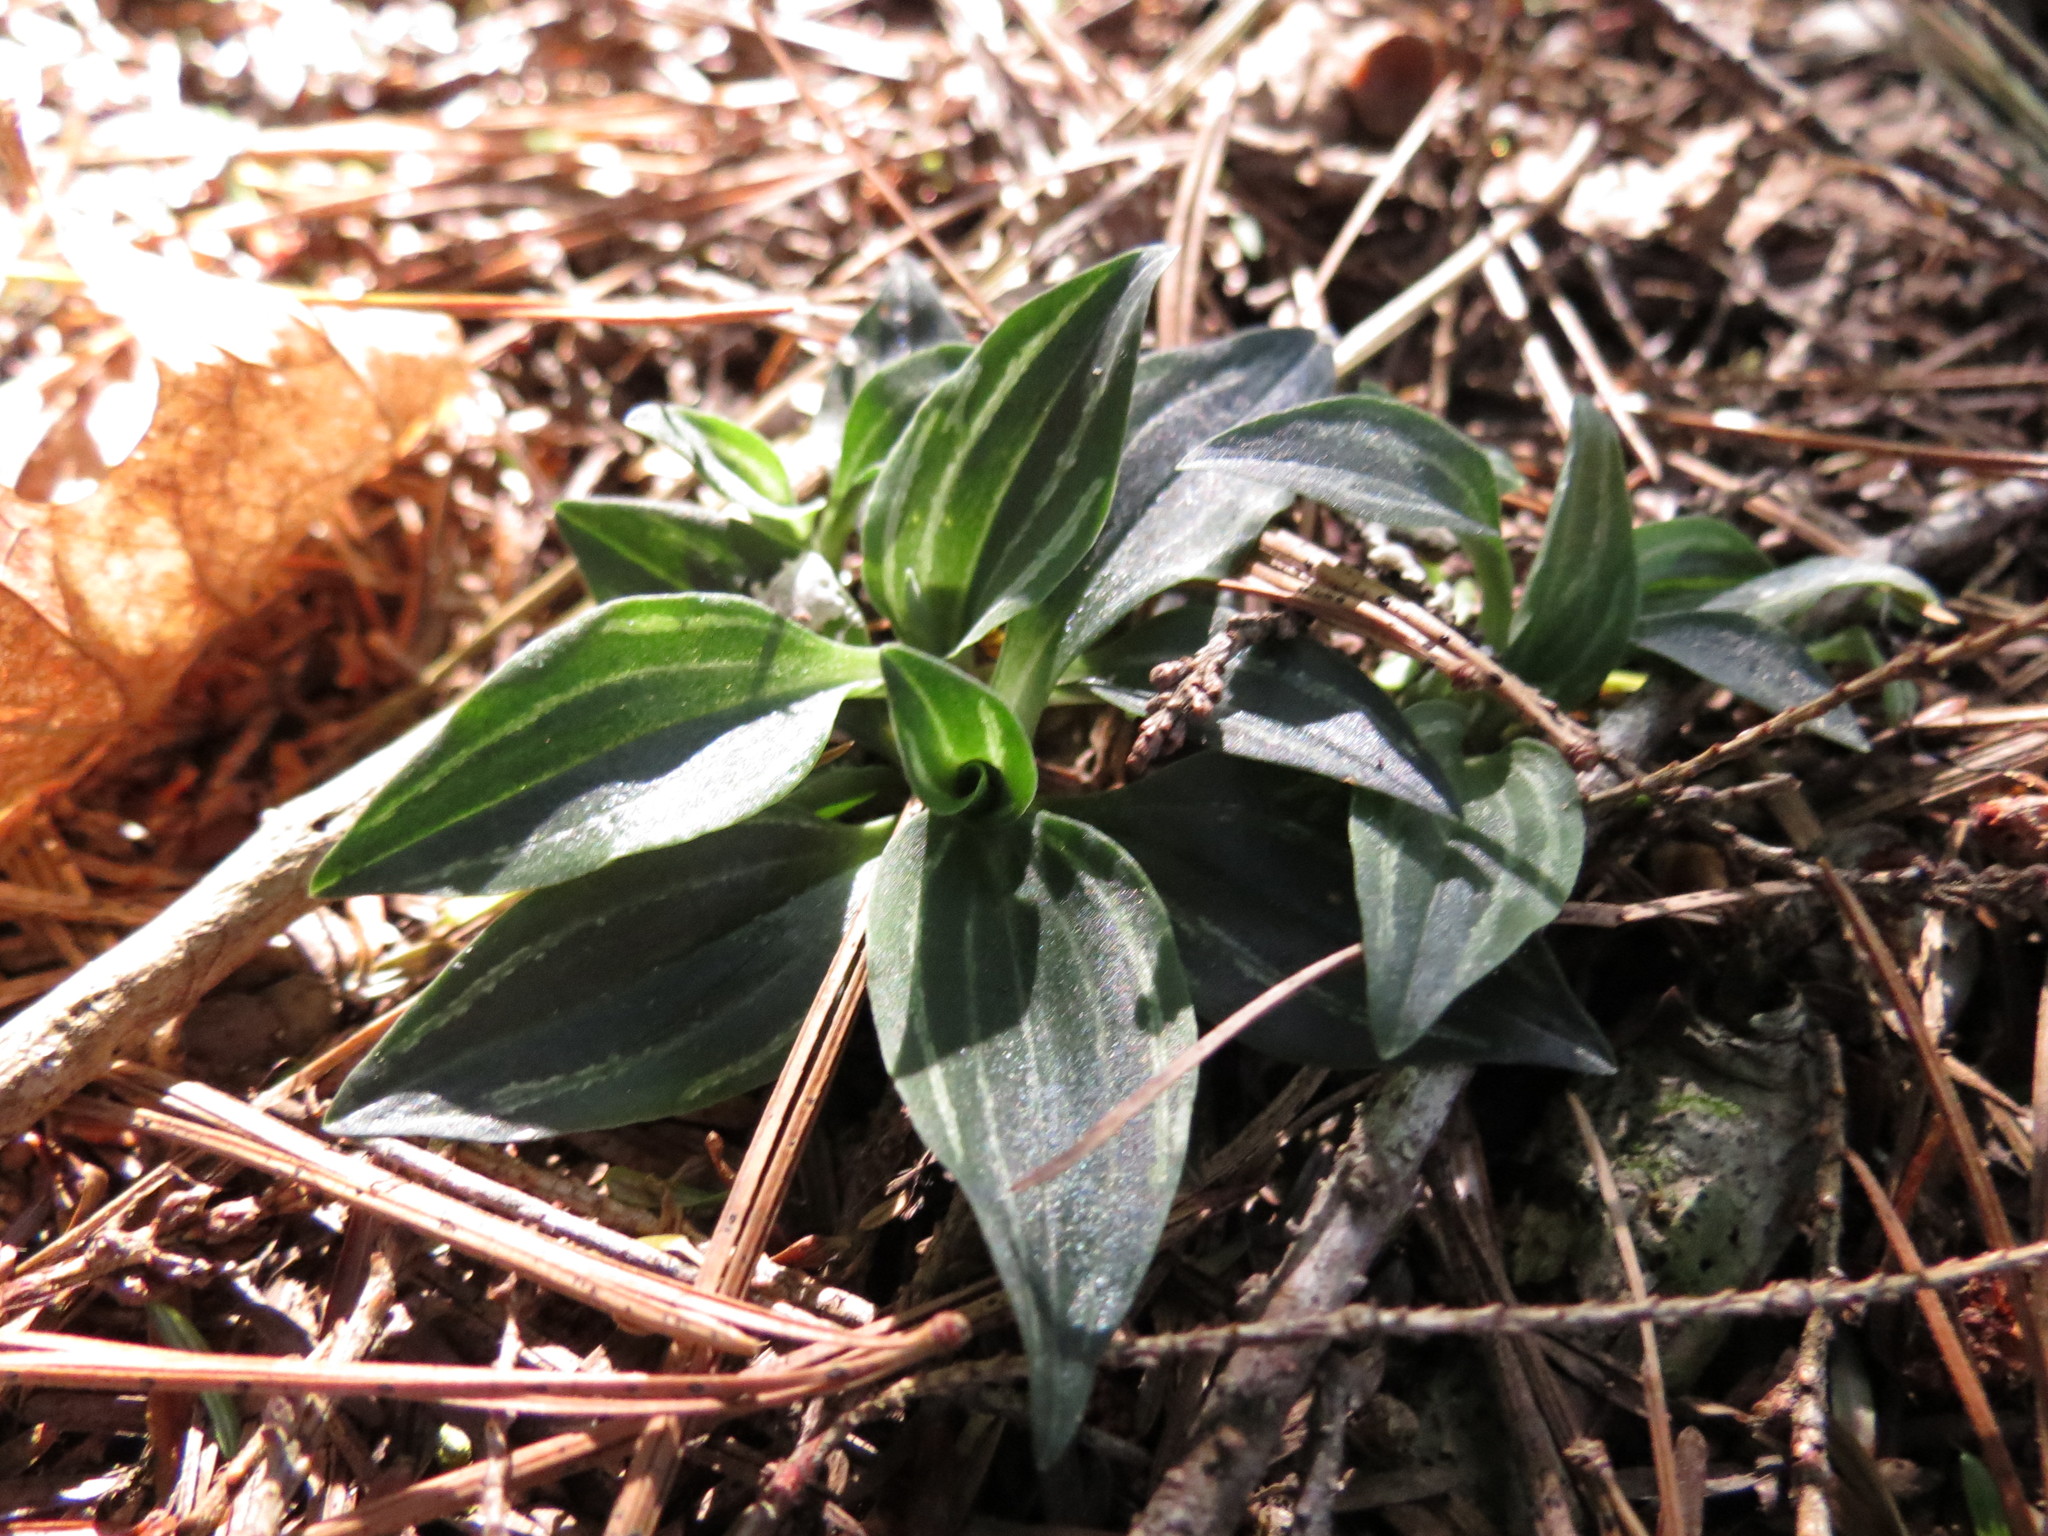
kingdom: Plantae
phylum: Tracheophyta
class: Liliopsida
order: Asparagales
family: Orchidaceae
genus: Goodyera
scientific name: Goodyera repens
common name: Creeping lady's-tresses
